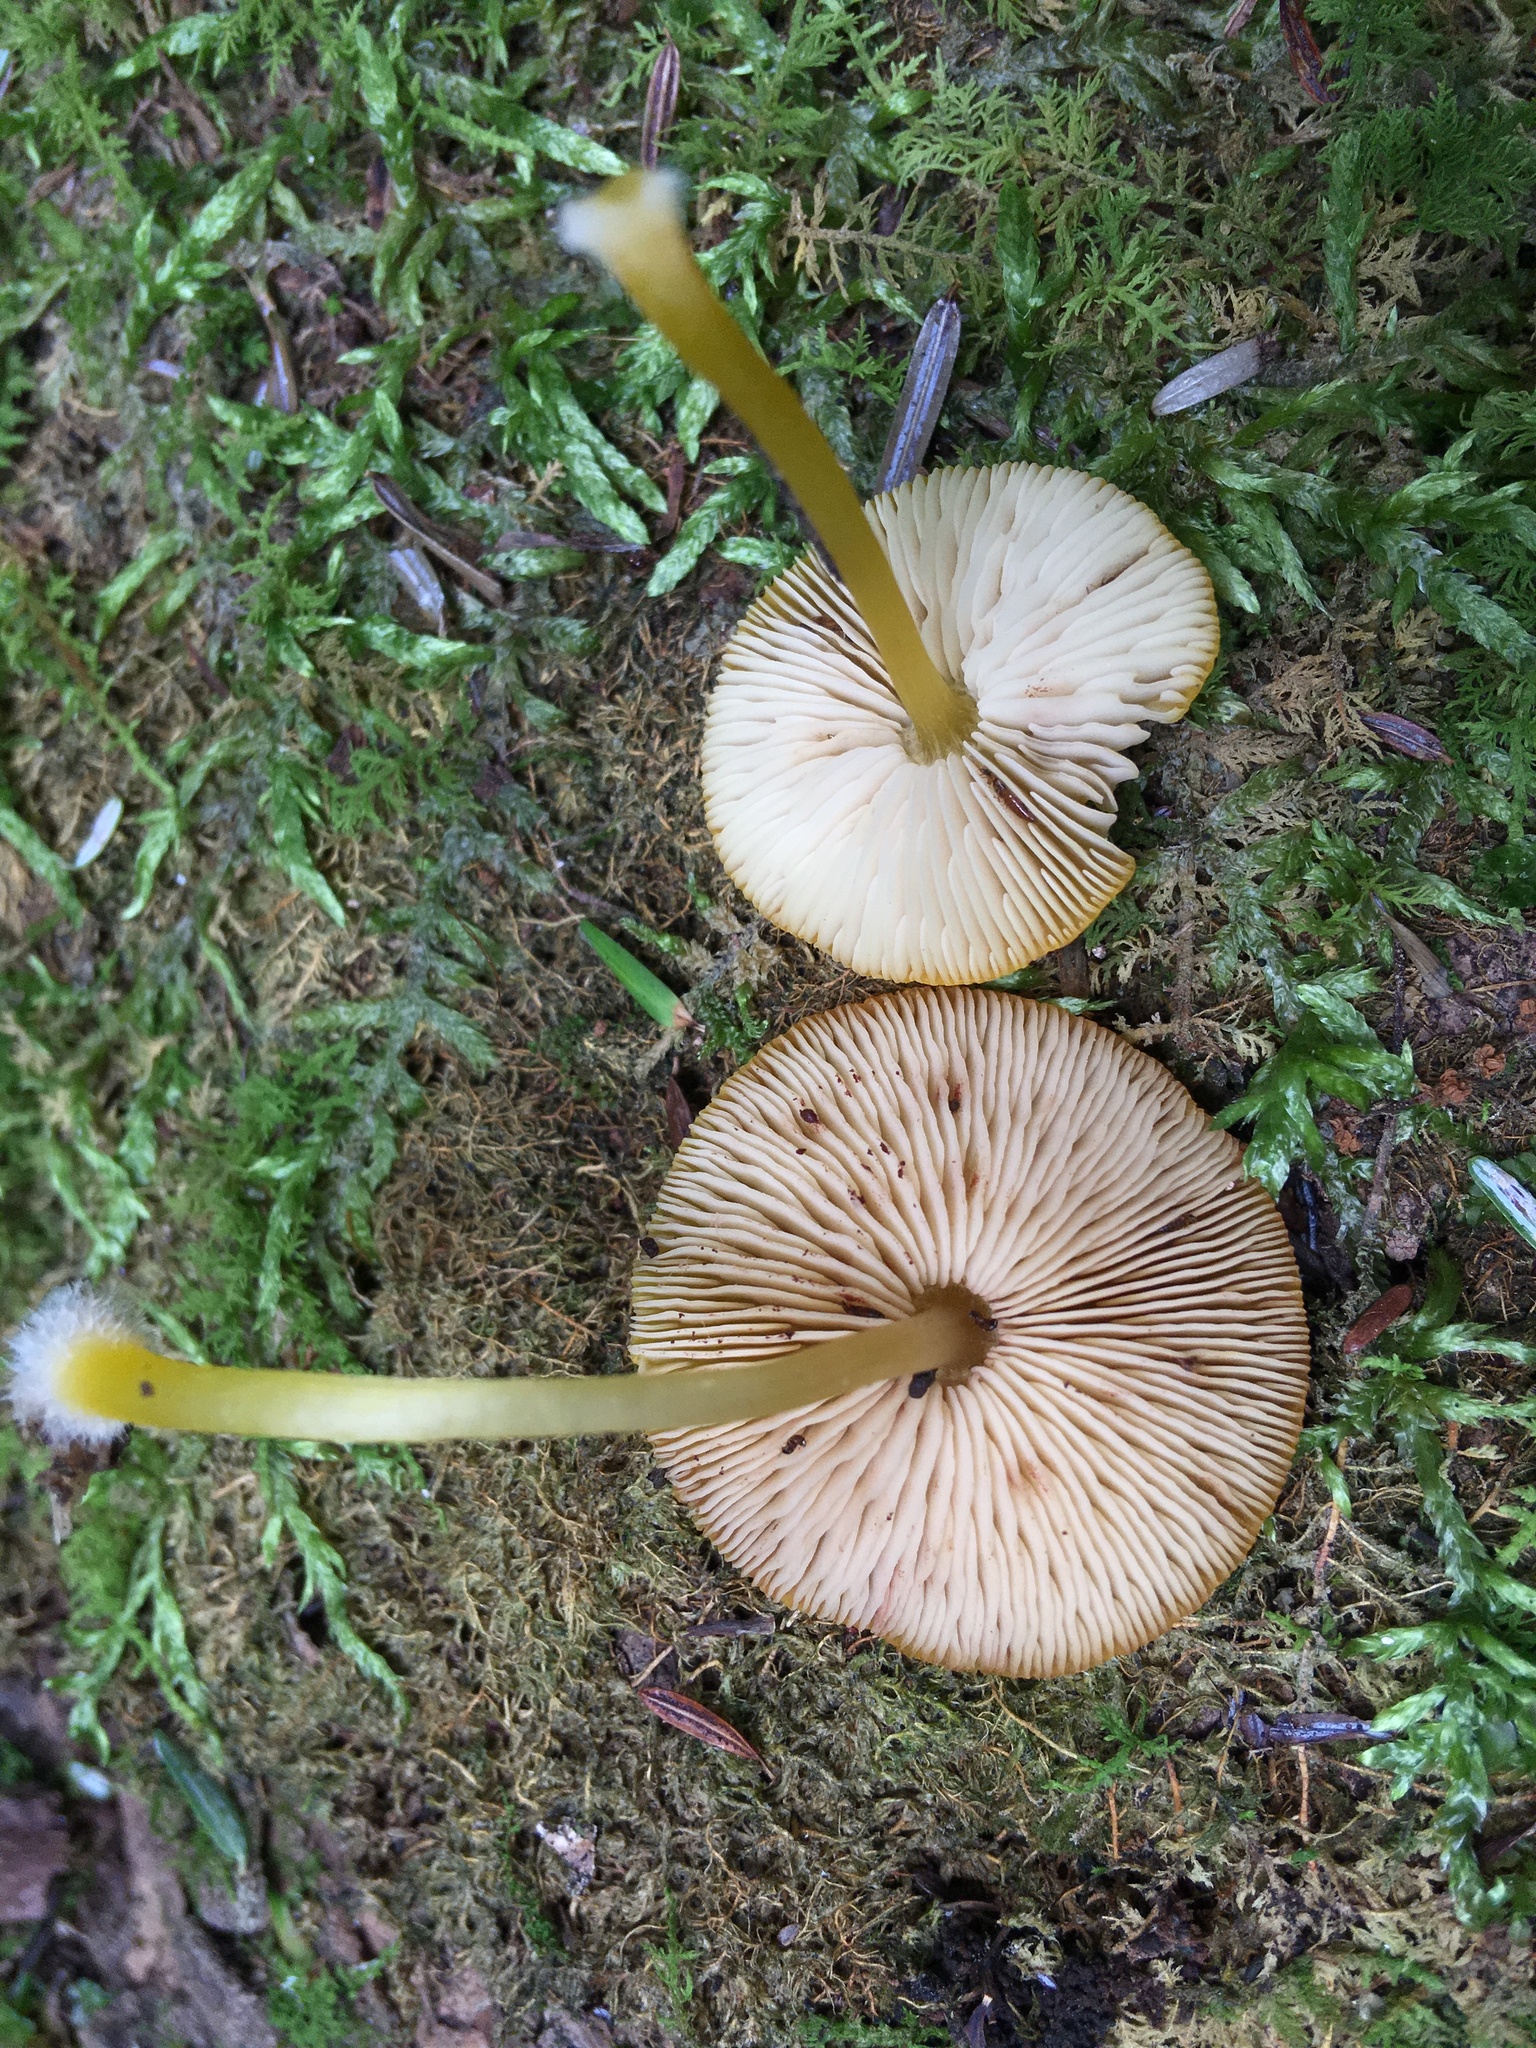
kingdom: Fungi
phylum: Basidiomycota
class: Agaricomycetes
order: Agaricales
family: Pluteaceae
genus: Pluteus
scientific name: Pluteus chrysophlebius
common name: Yellow deer mushroom
